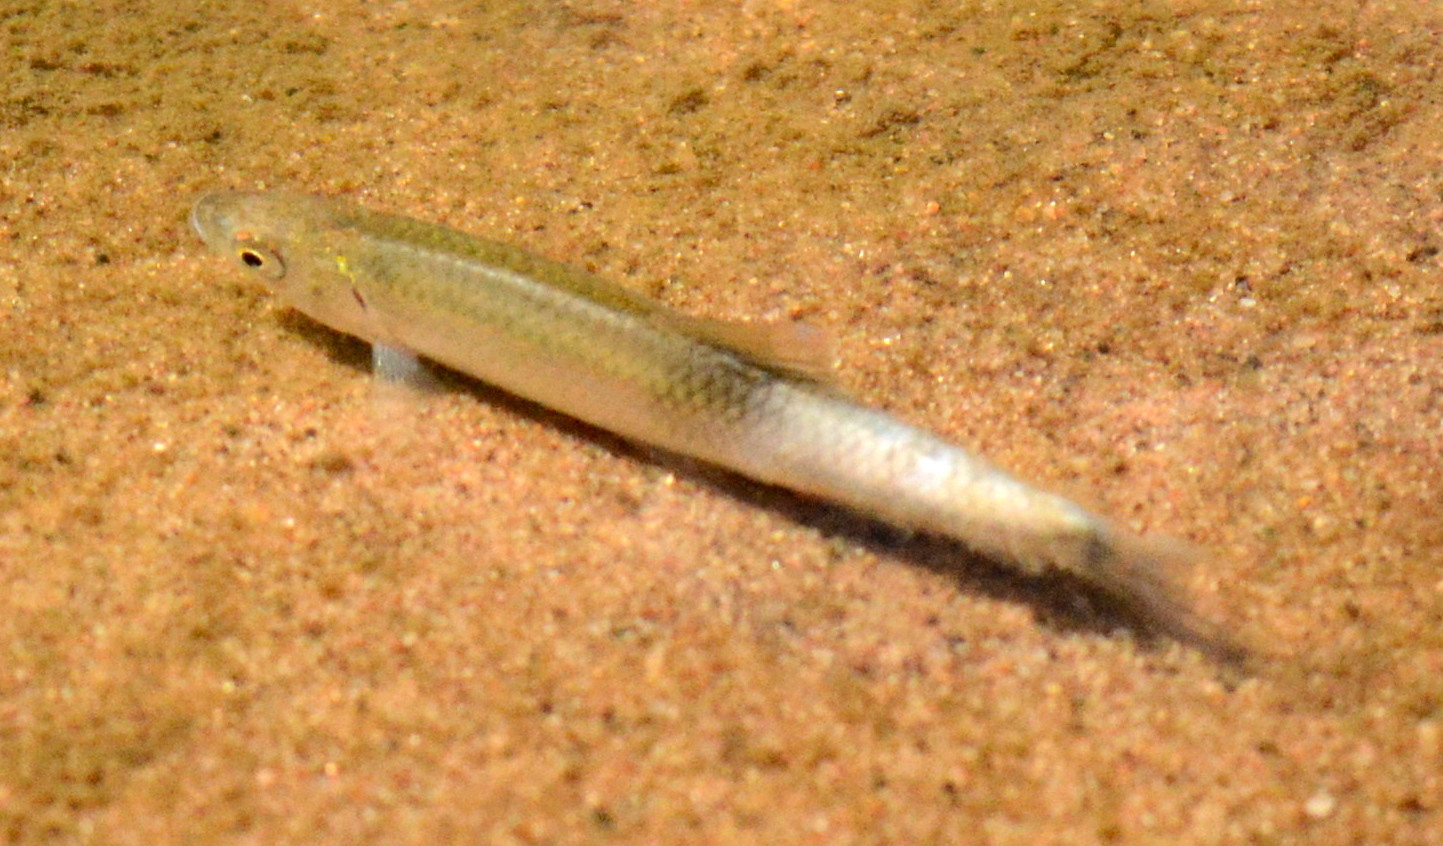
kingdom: Animalia
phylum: Chordata
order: Cypriniformes
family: Cyprinidae
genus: Cyprinella
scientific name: Cyprinella spiloptera
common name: Spotfin shiner
